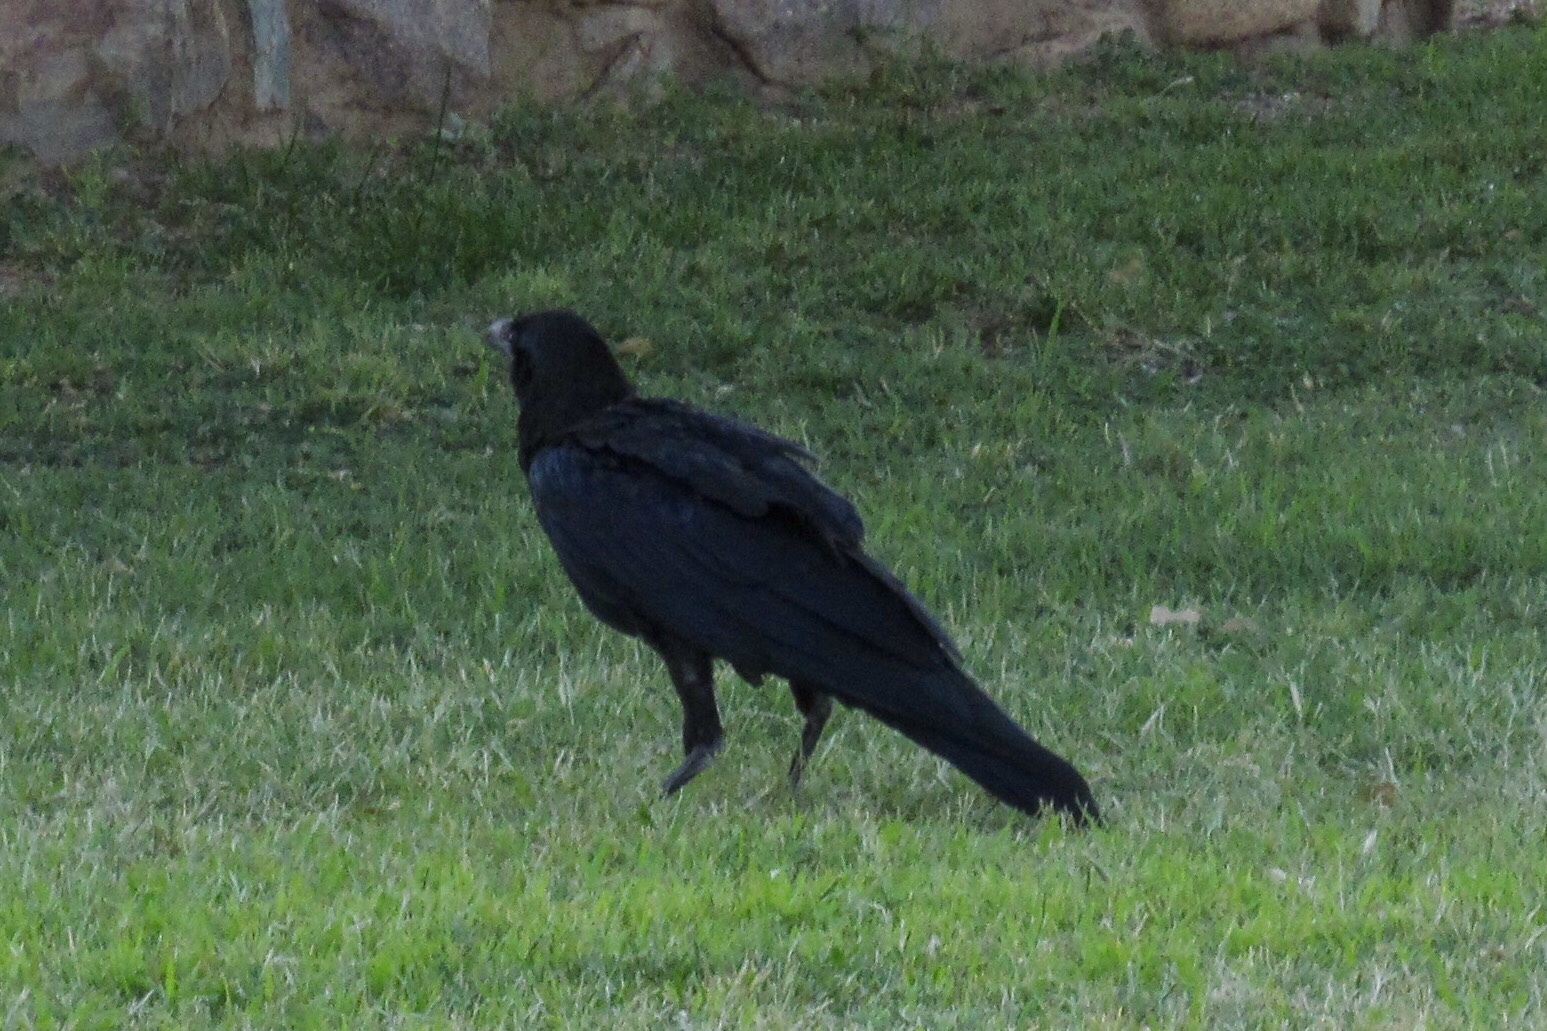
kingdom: Animalia
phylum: Chordata
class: Aves
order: Passeriformes
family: Corvidae
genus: Corvus
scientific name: Corvus corax
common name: Common raven
